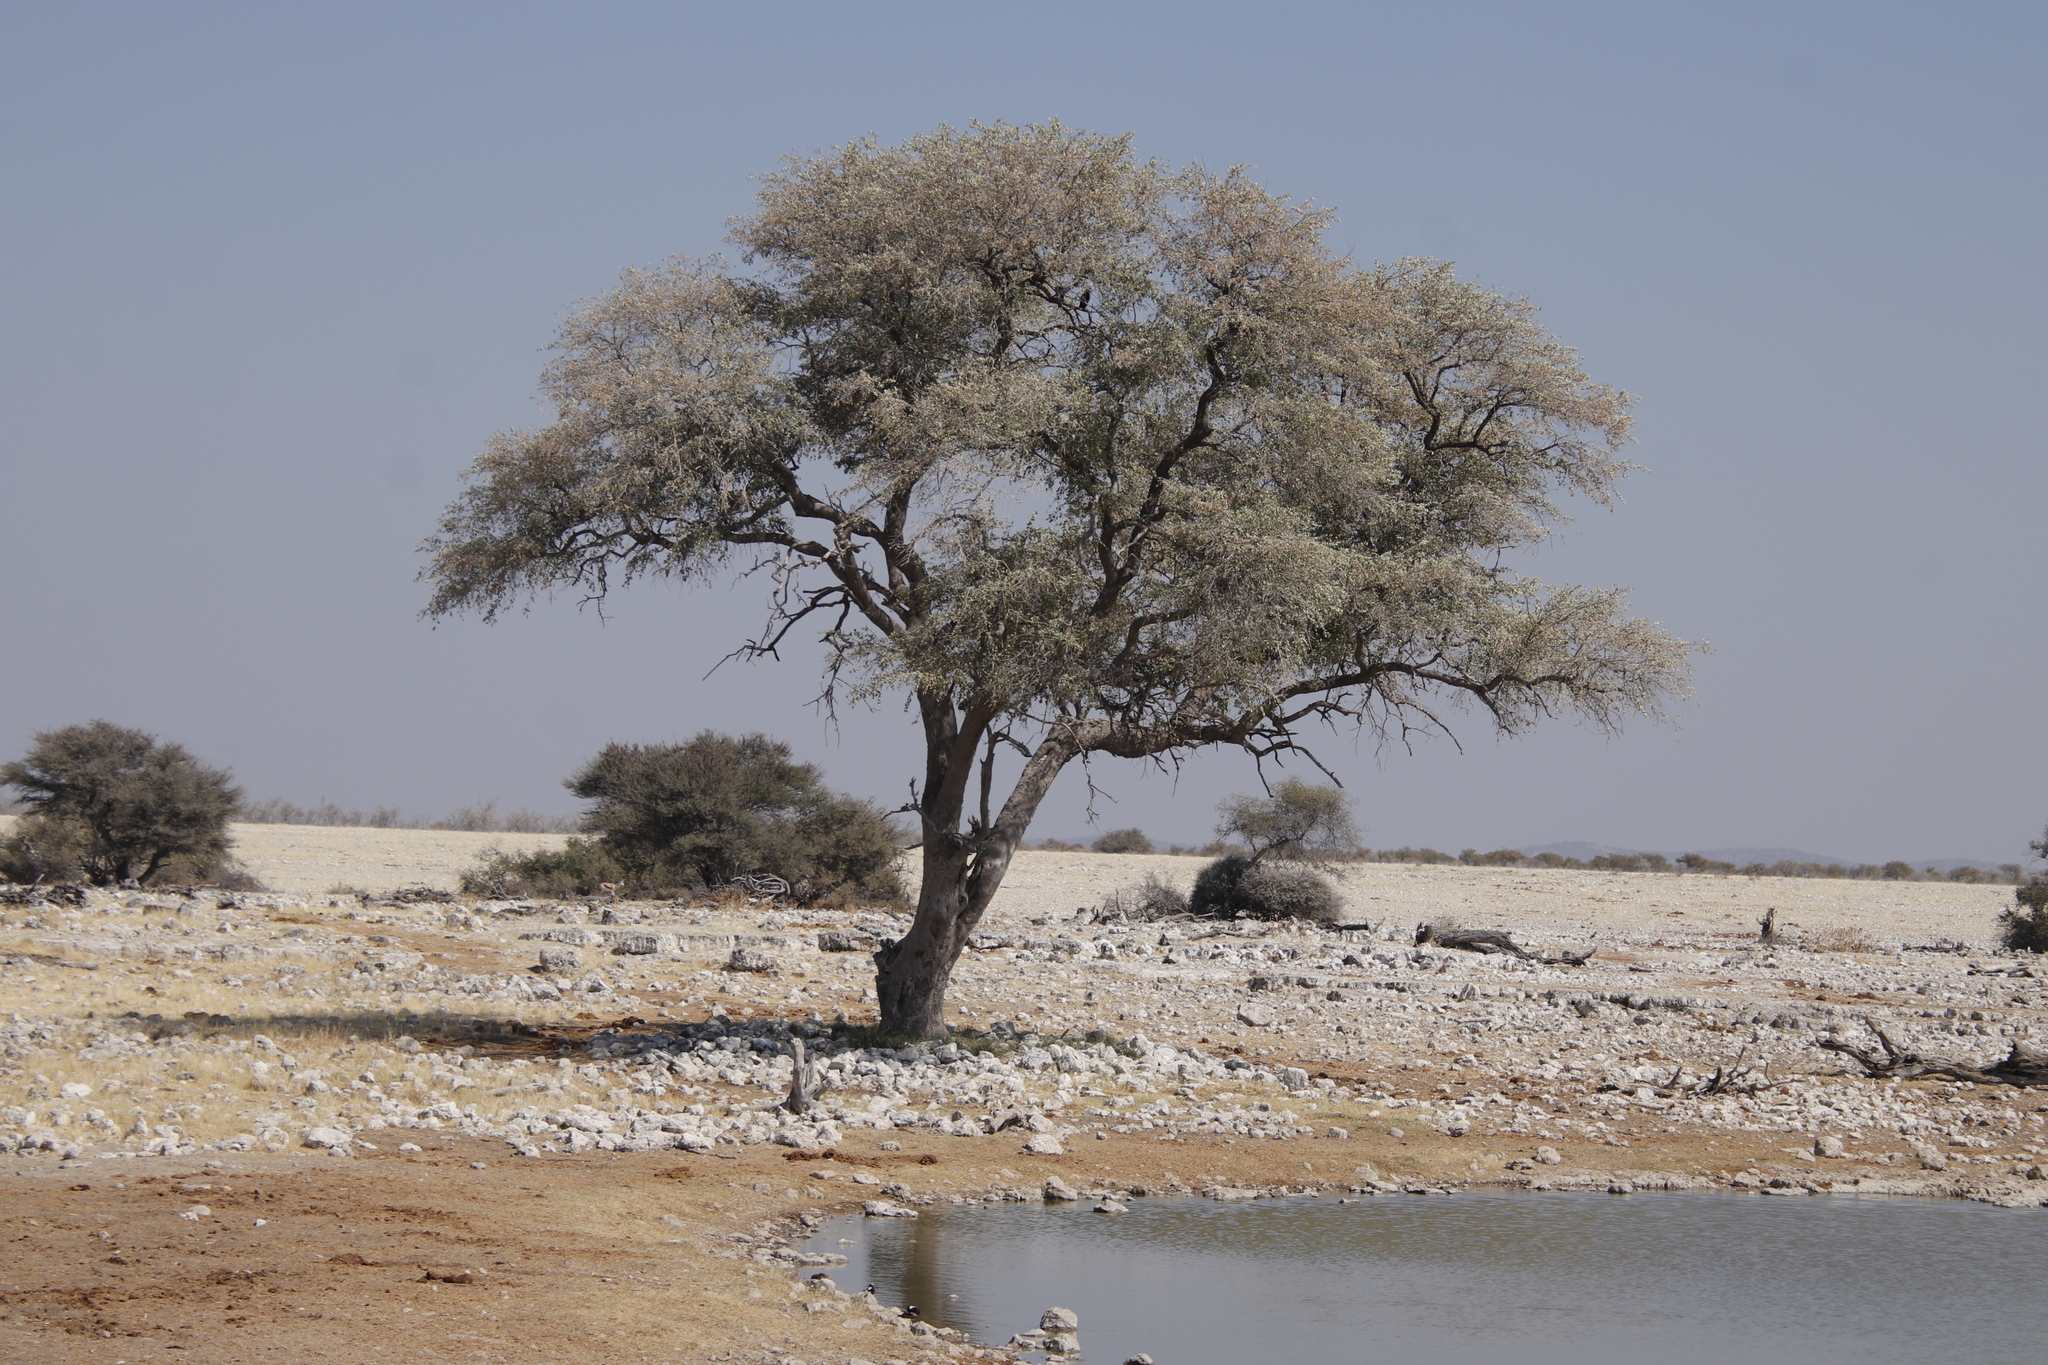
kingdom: Plantae
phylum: Tracheophyta
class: Magnoliopsida
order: Fabales
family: Fabaceae
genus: Vachellia
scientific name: Vachellia erioloba
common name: Camel thorn
